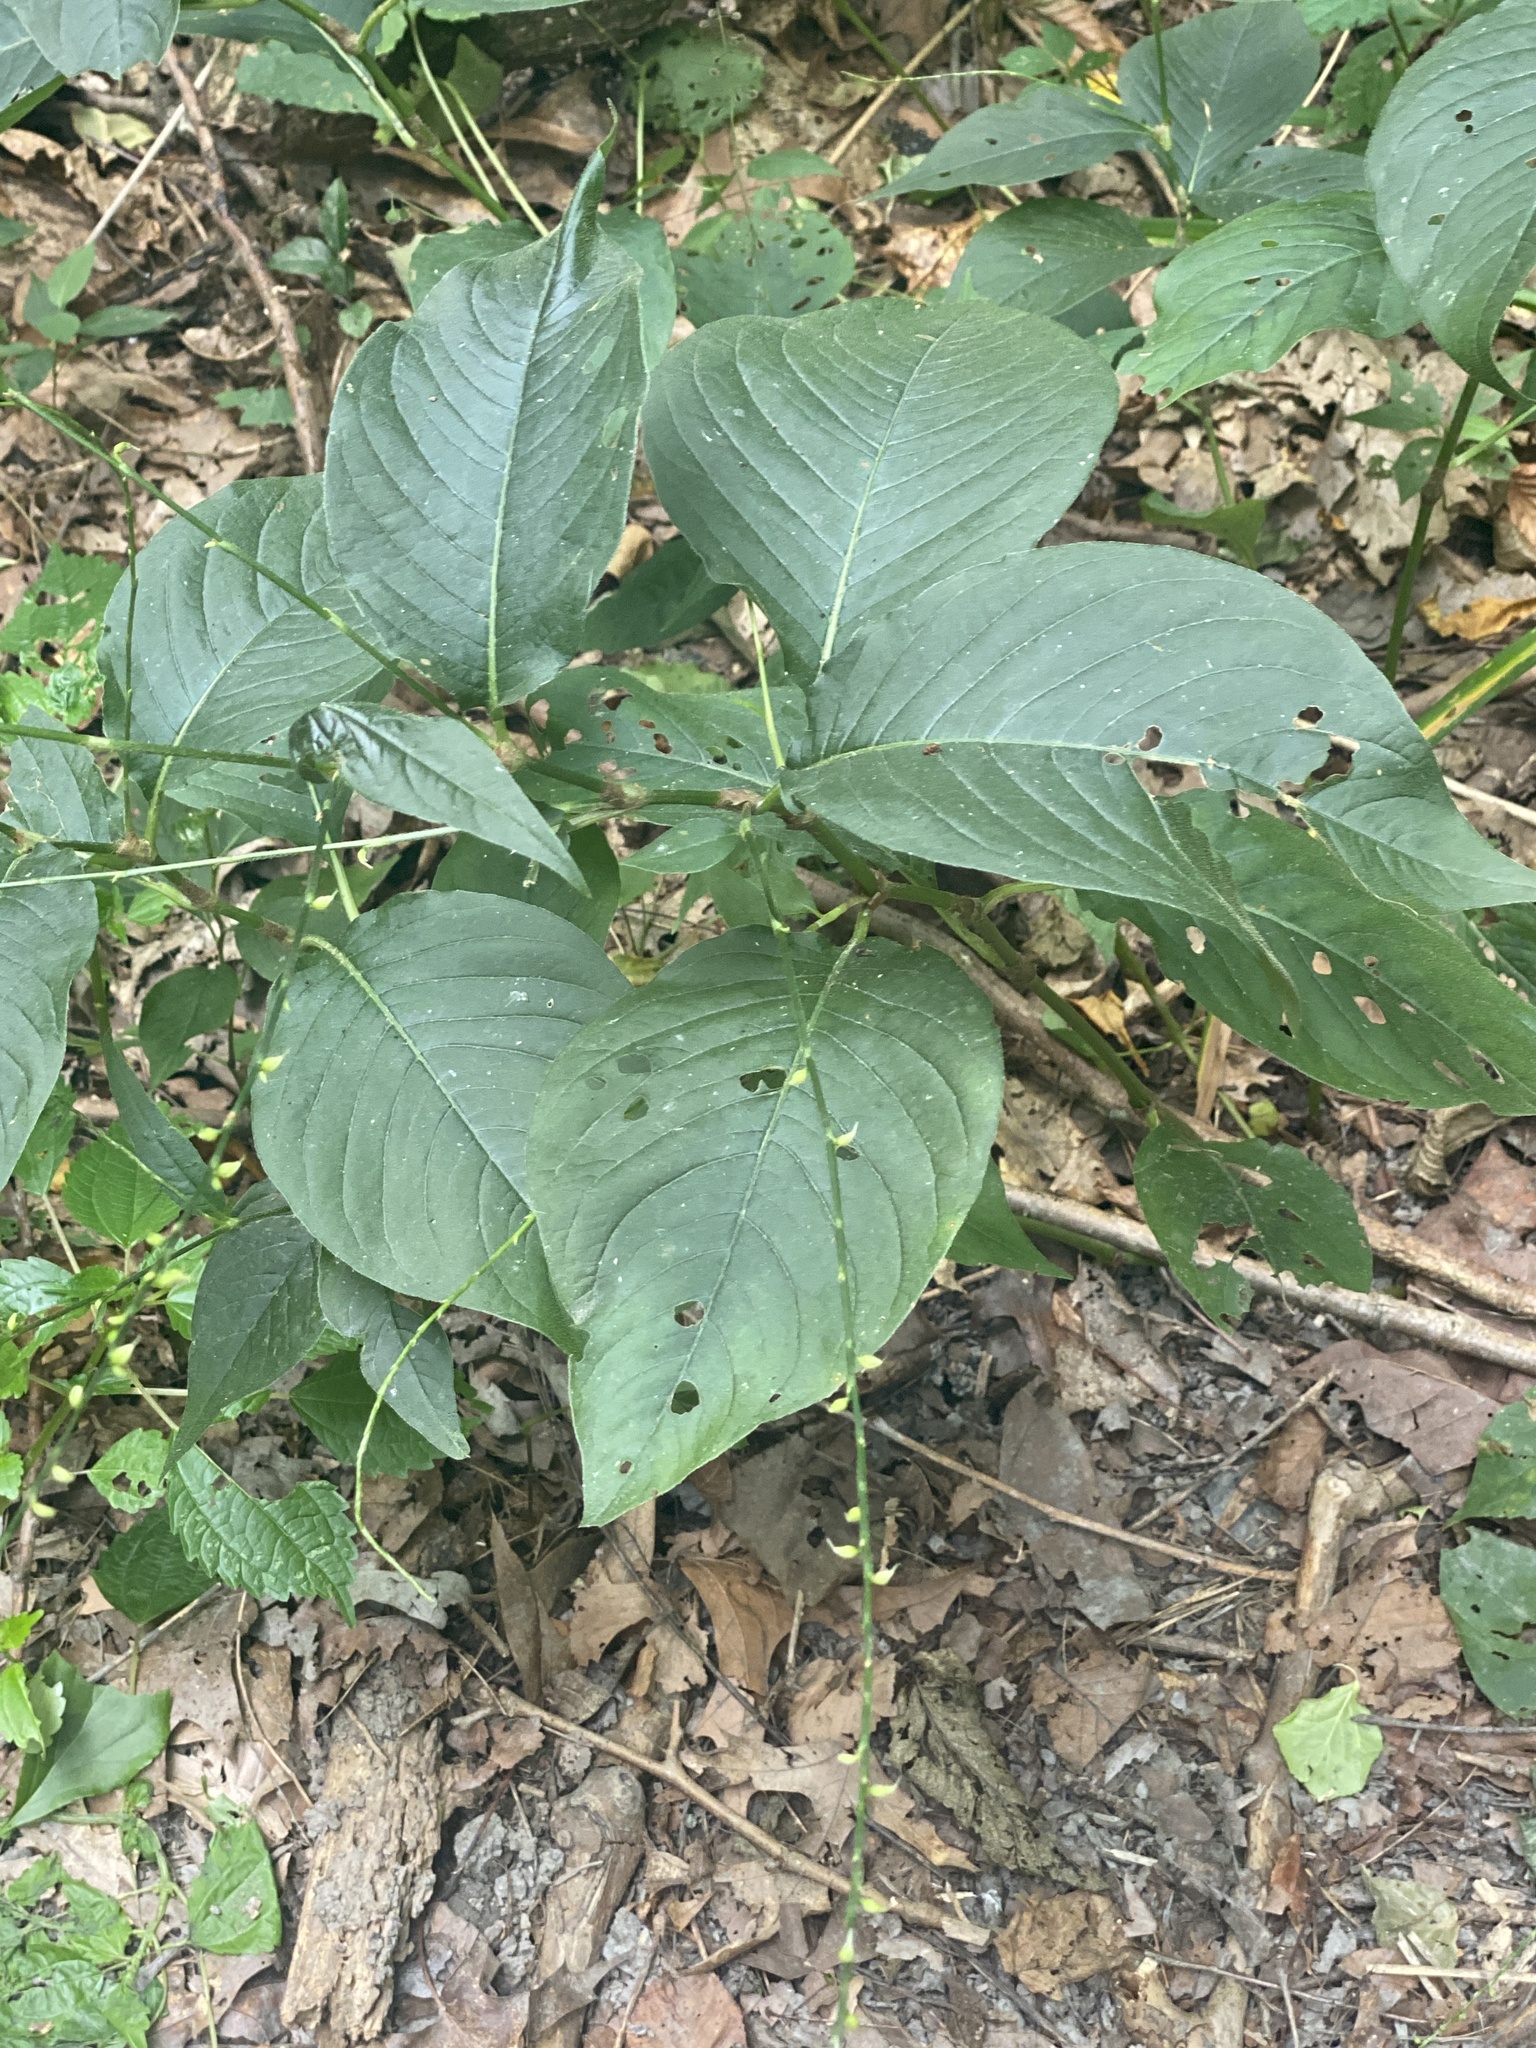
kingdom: Plantae
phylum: Tracheophyta
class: Magnoliopsida
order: Caryophyllales
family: Polygonaceae
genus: Persicaria
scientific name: Persicaria virginiana
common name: Jumpseed
